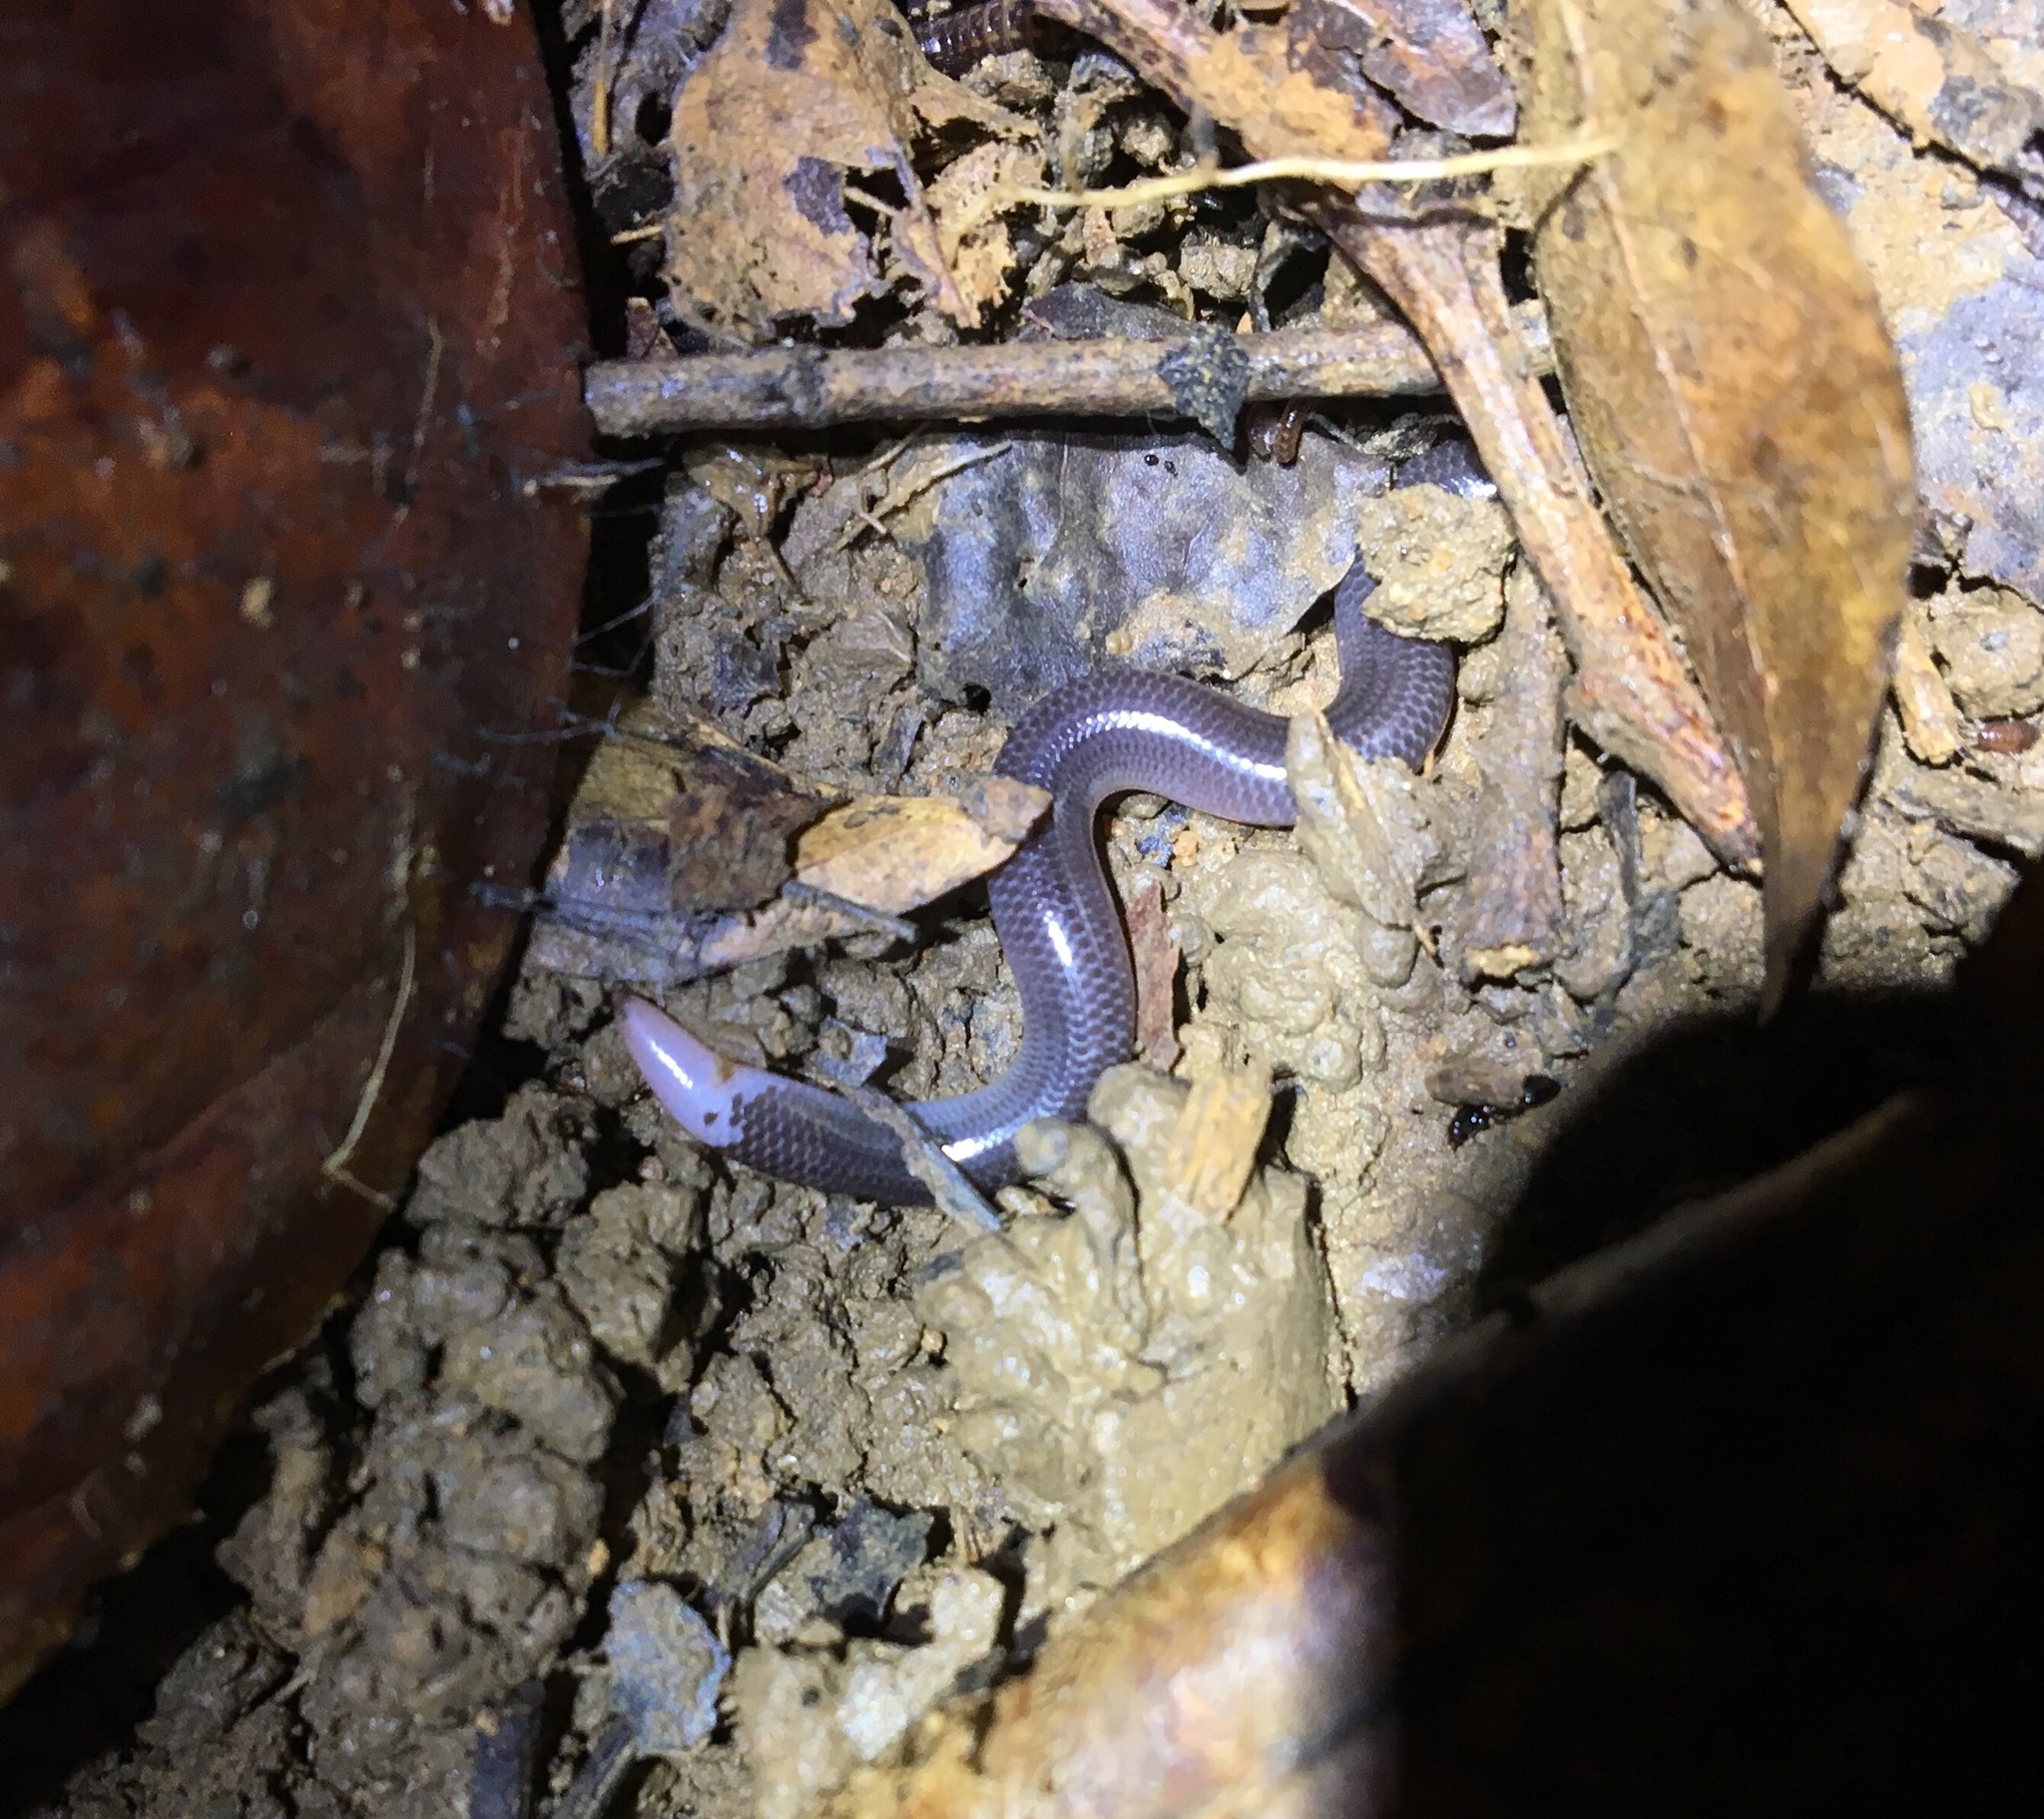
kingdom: Animalia
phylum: Chordata
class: Squamata
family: Typhlopidae
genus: Antillotyphlops
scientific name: Antillotyphlops platycephalus
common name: Flathead worm snake
